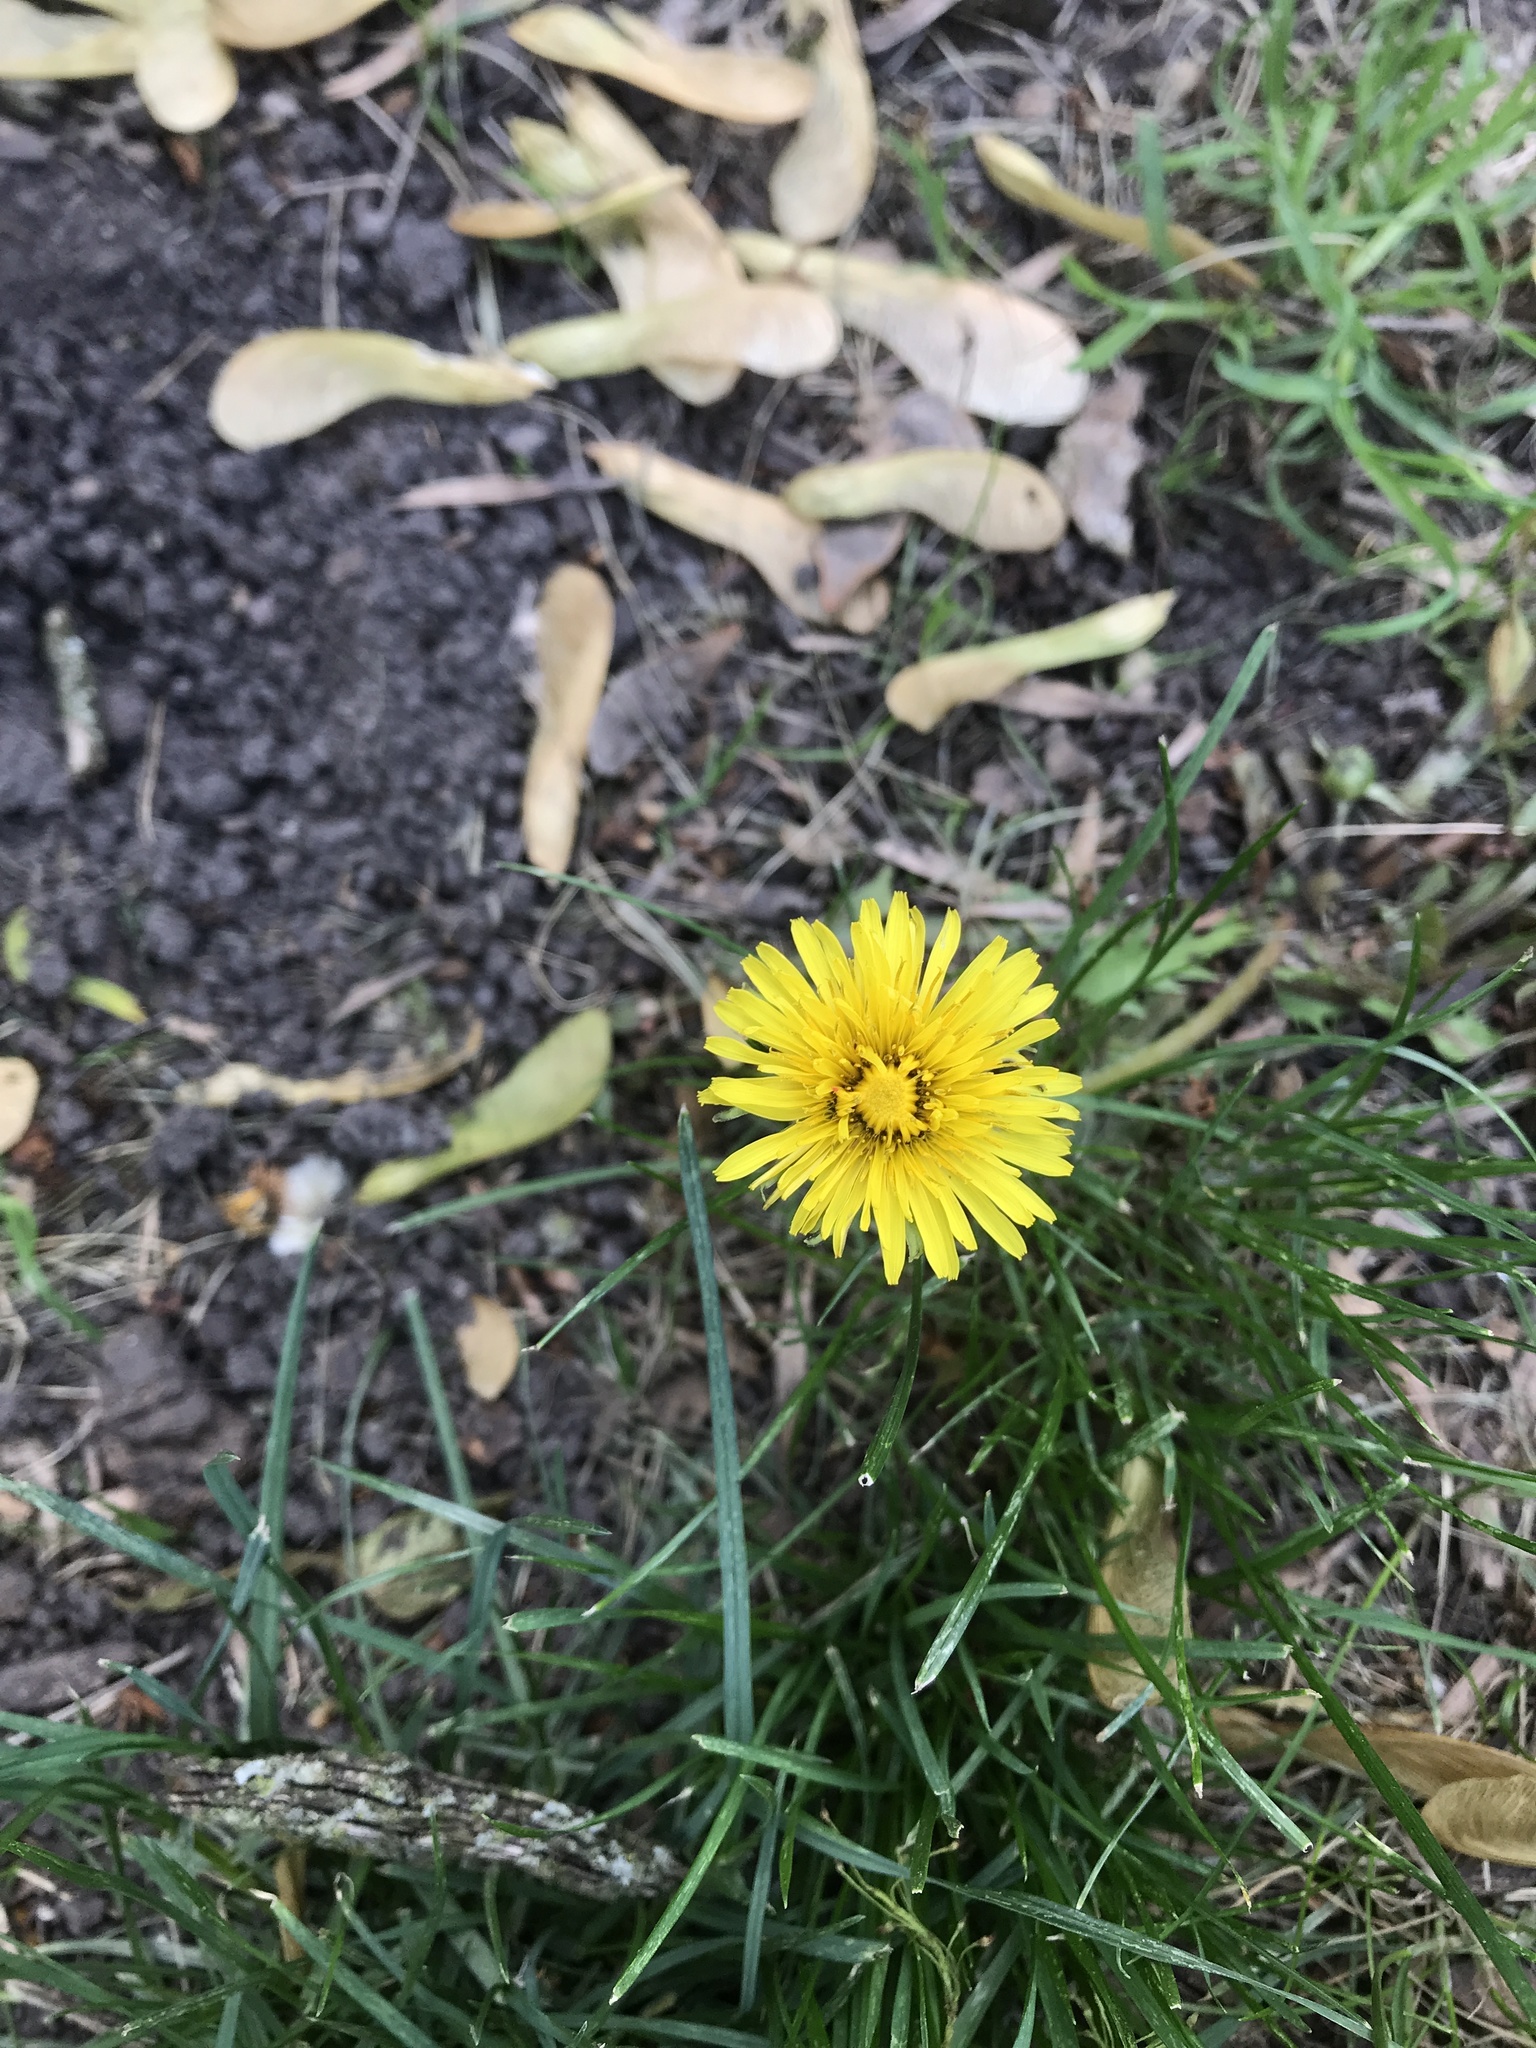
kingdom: Plantae
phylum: Tracheophyta
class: Magnoliopsida
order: Asterales
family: Asteraceae
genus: Taraxacum
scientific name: Taraxacum officinale
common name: Common dandelion
